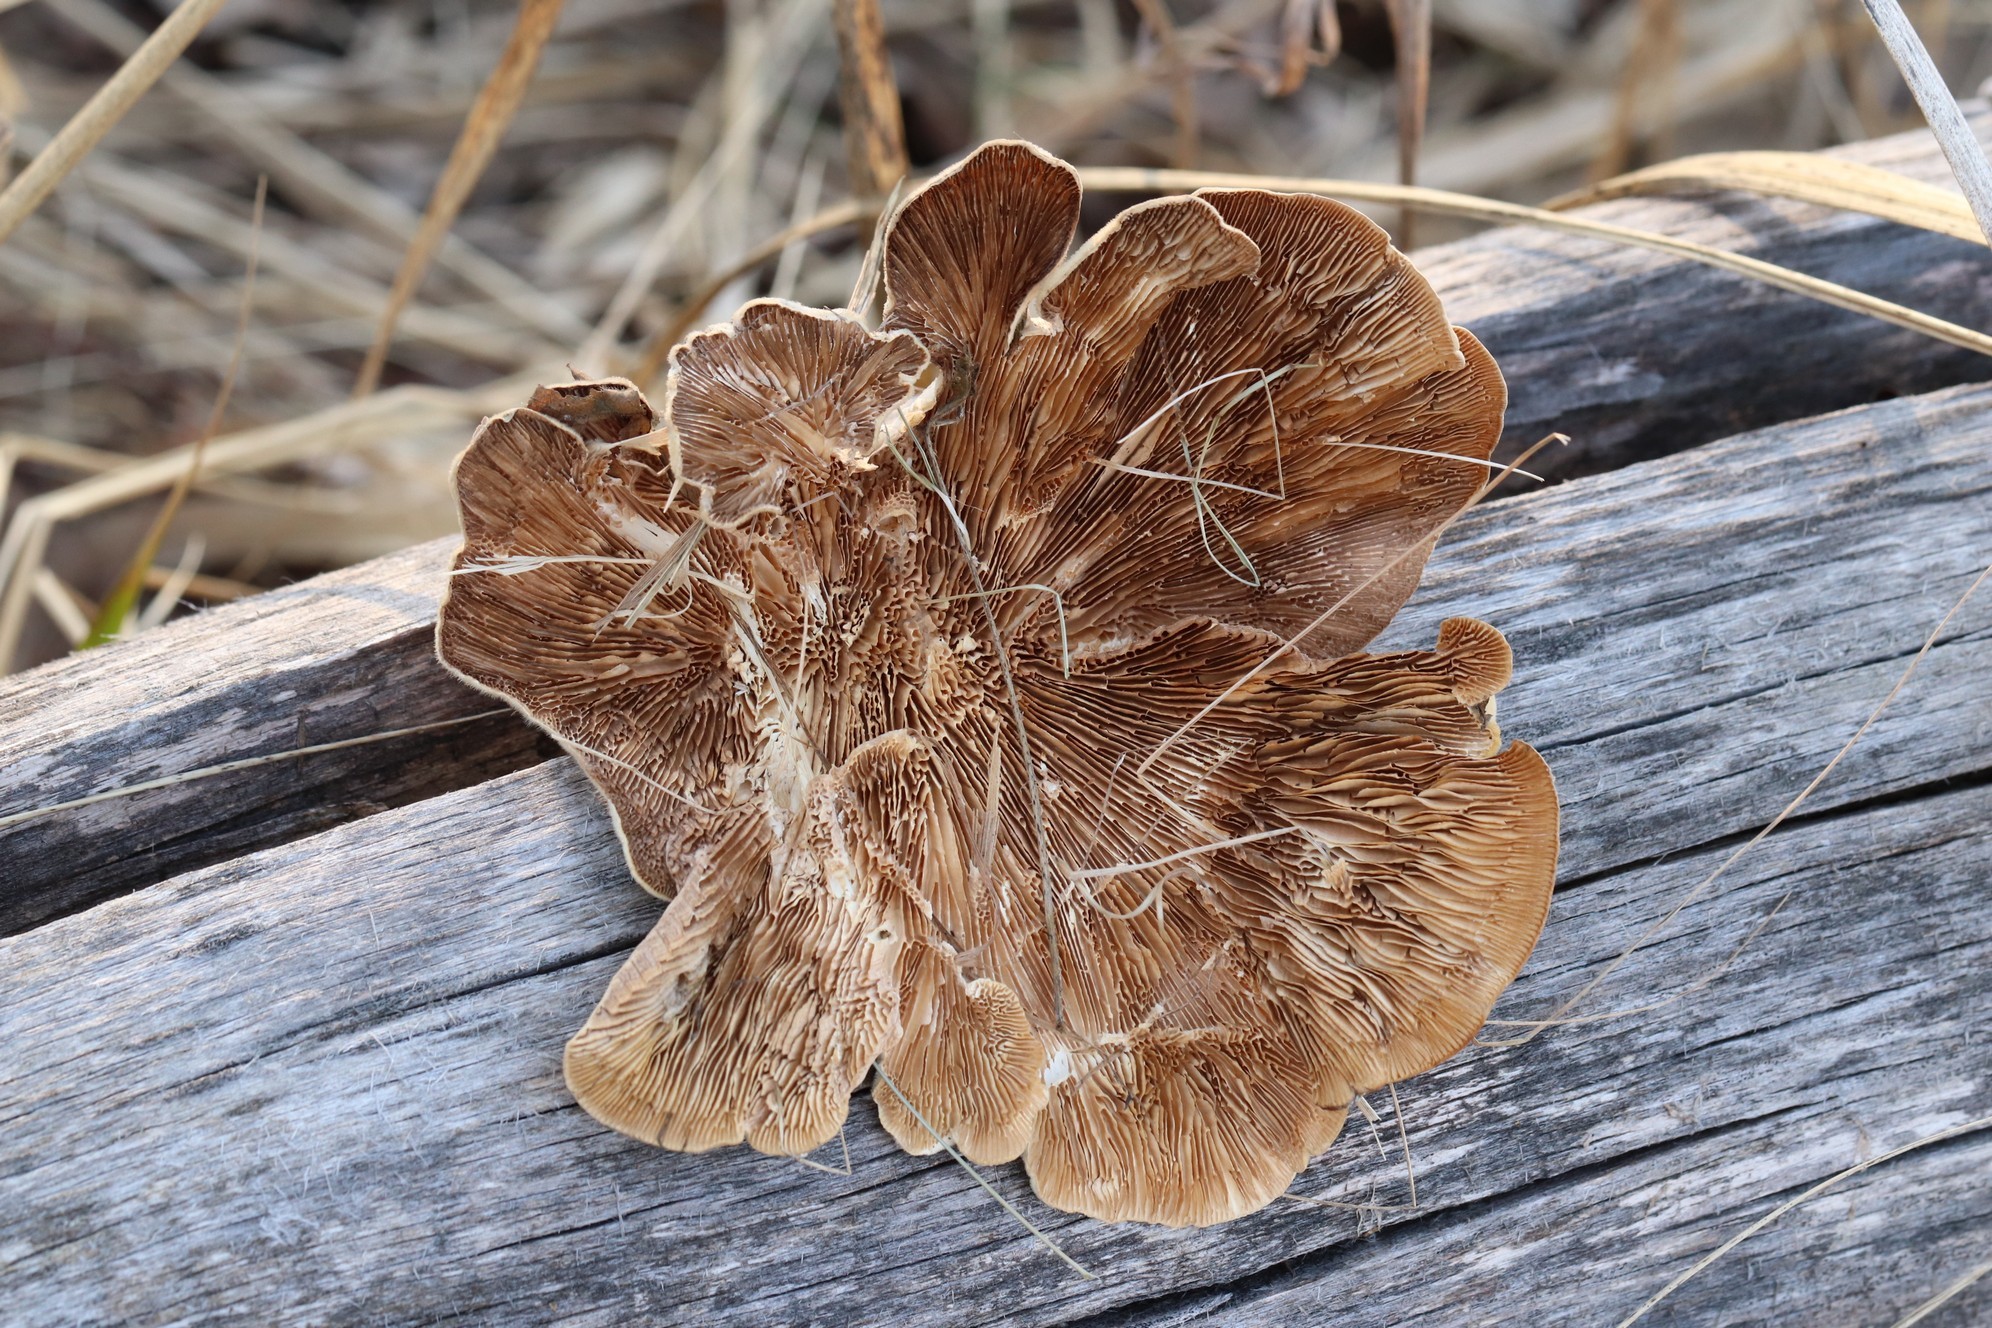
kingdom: Fungi
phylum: Basidiomycota
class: Agaricomycetes
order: Polyporales
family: Polyporaceae
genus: Lenzites
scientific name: Lenzites betulinus
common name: Birch mazegill
